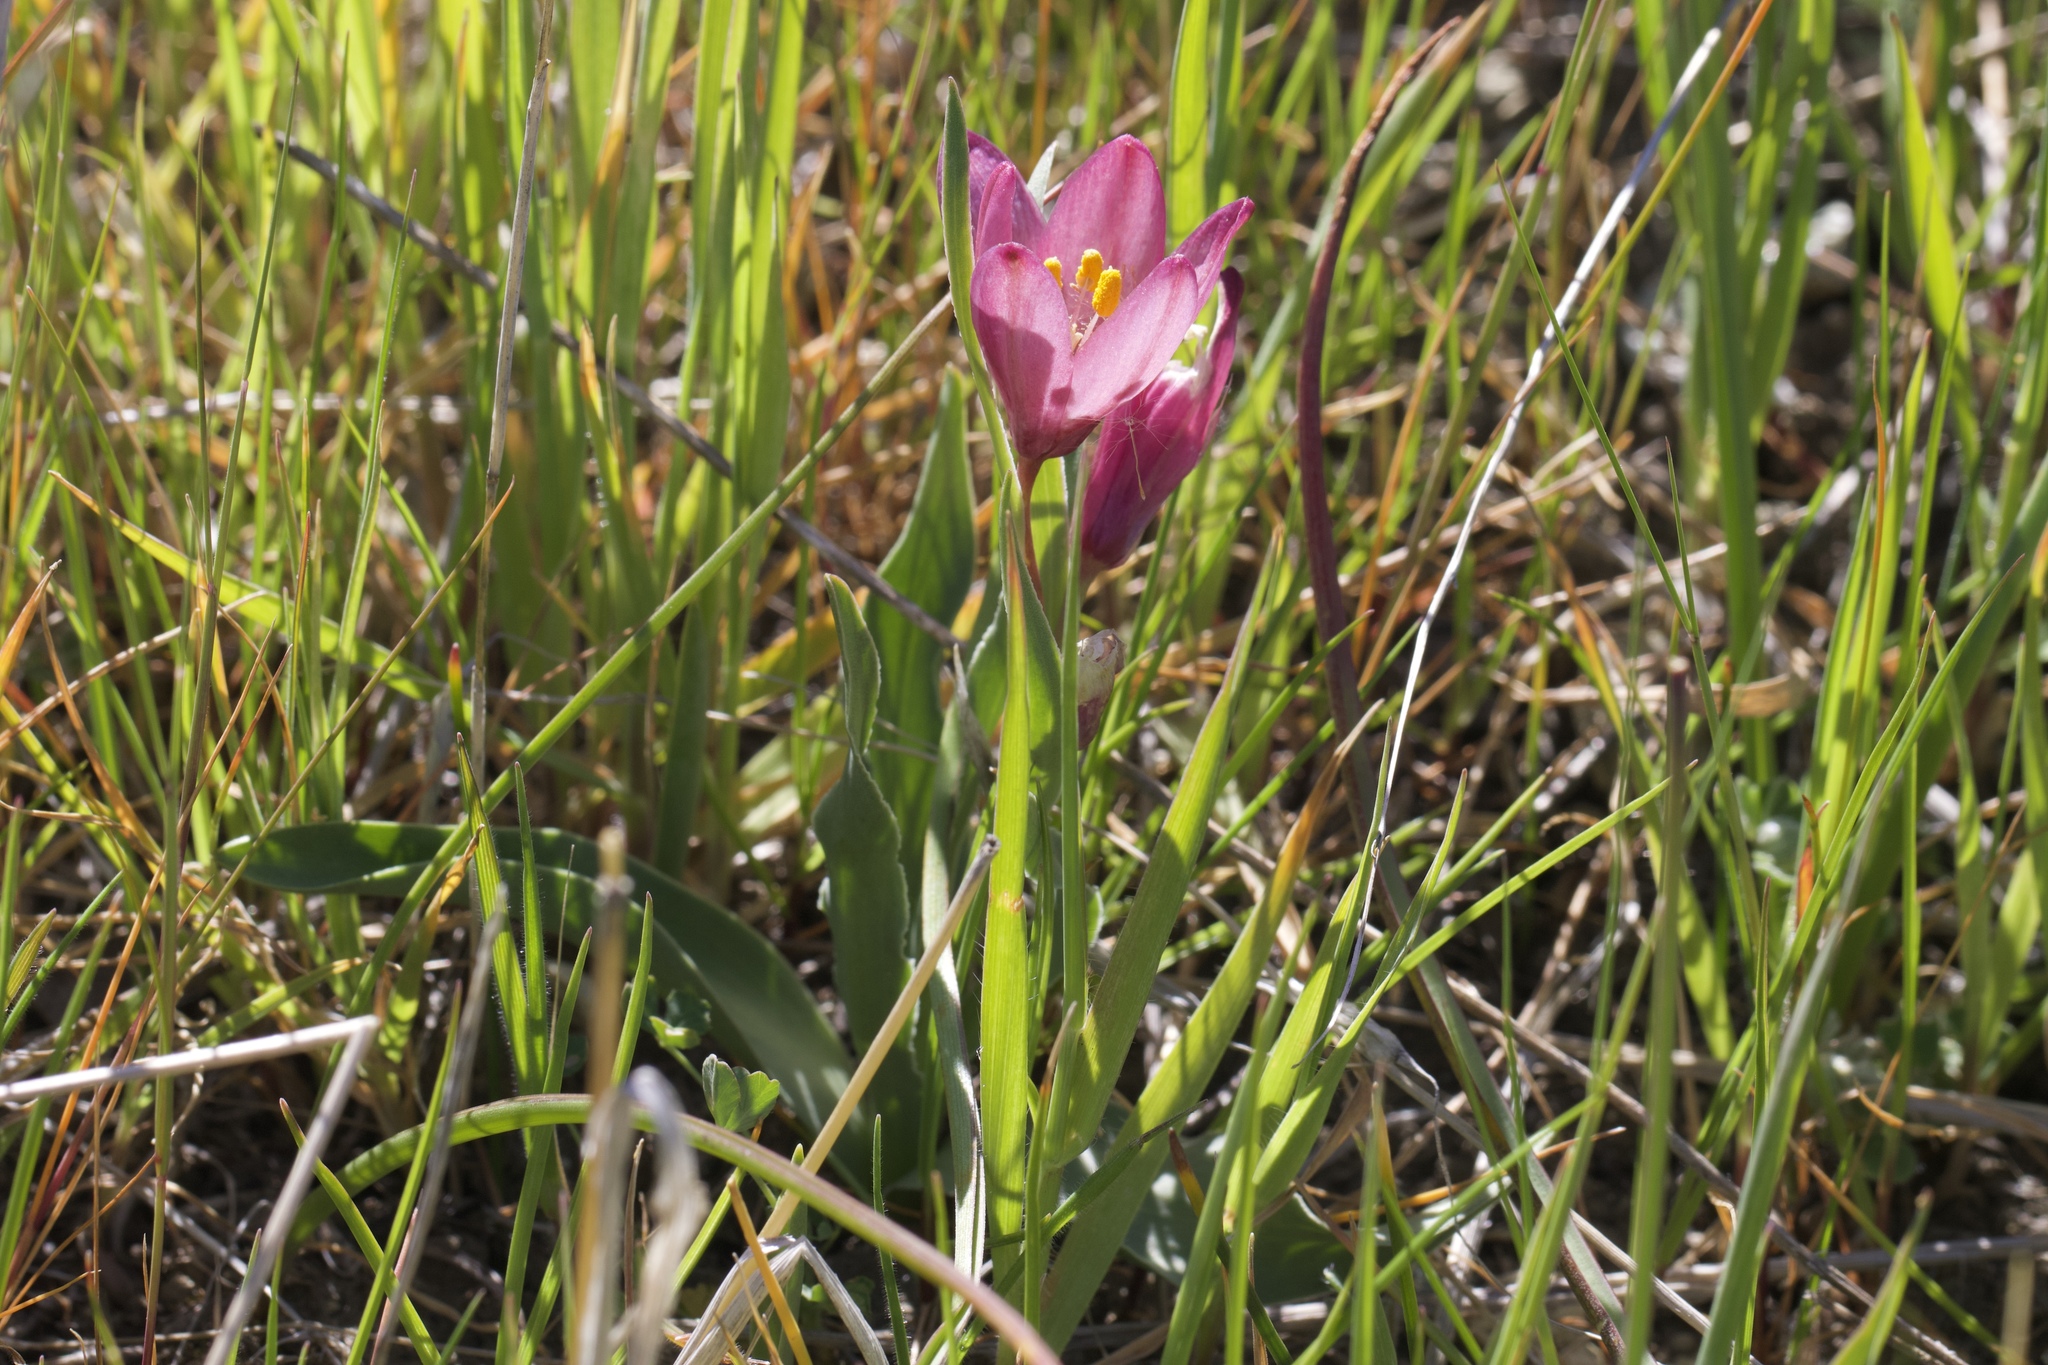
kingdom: Plantae
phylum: Tracheophyta
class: Liliopsida
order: Liliales
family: Liliaceae
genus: Fritillaria
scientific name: Fritillaria pluriflora
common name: Adobe-lily
